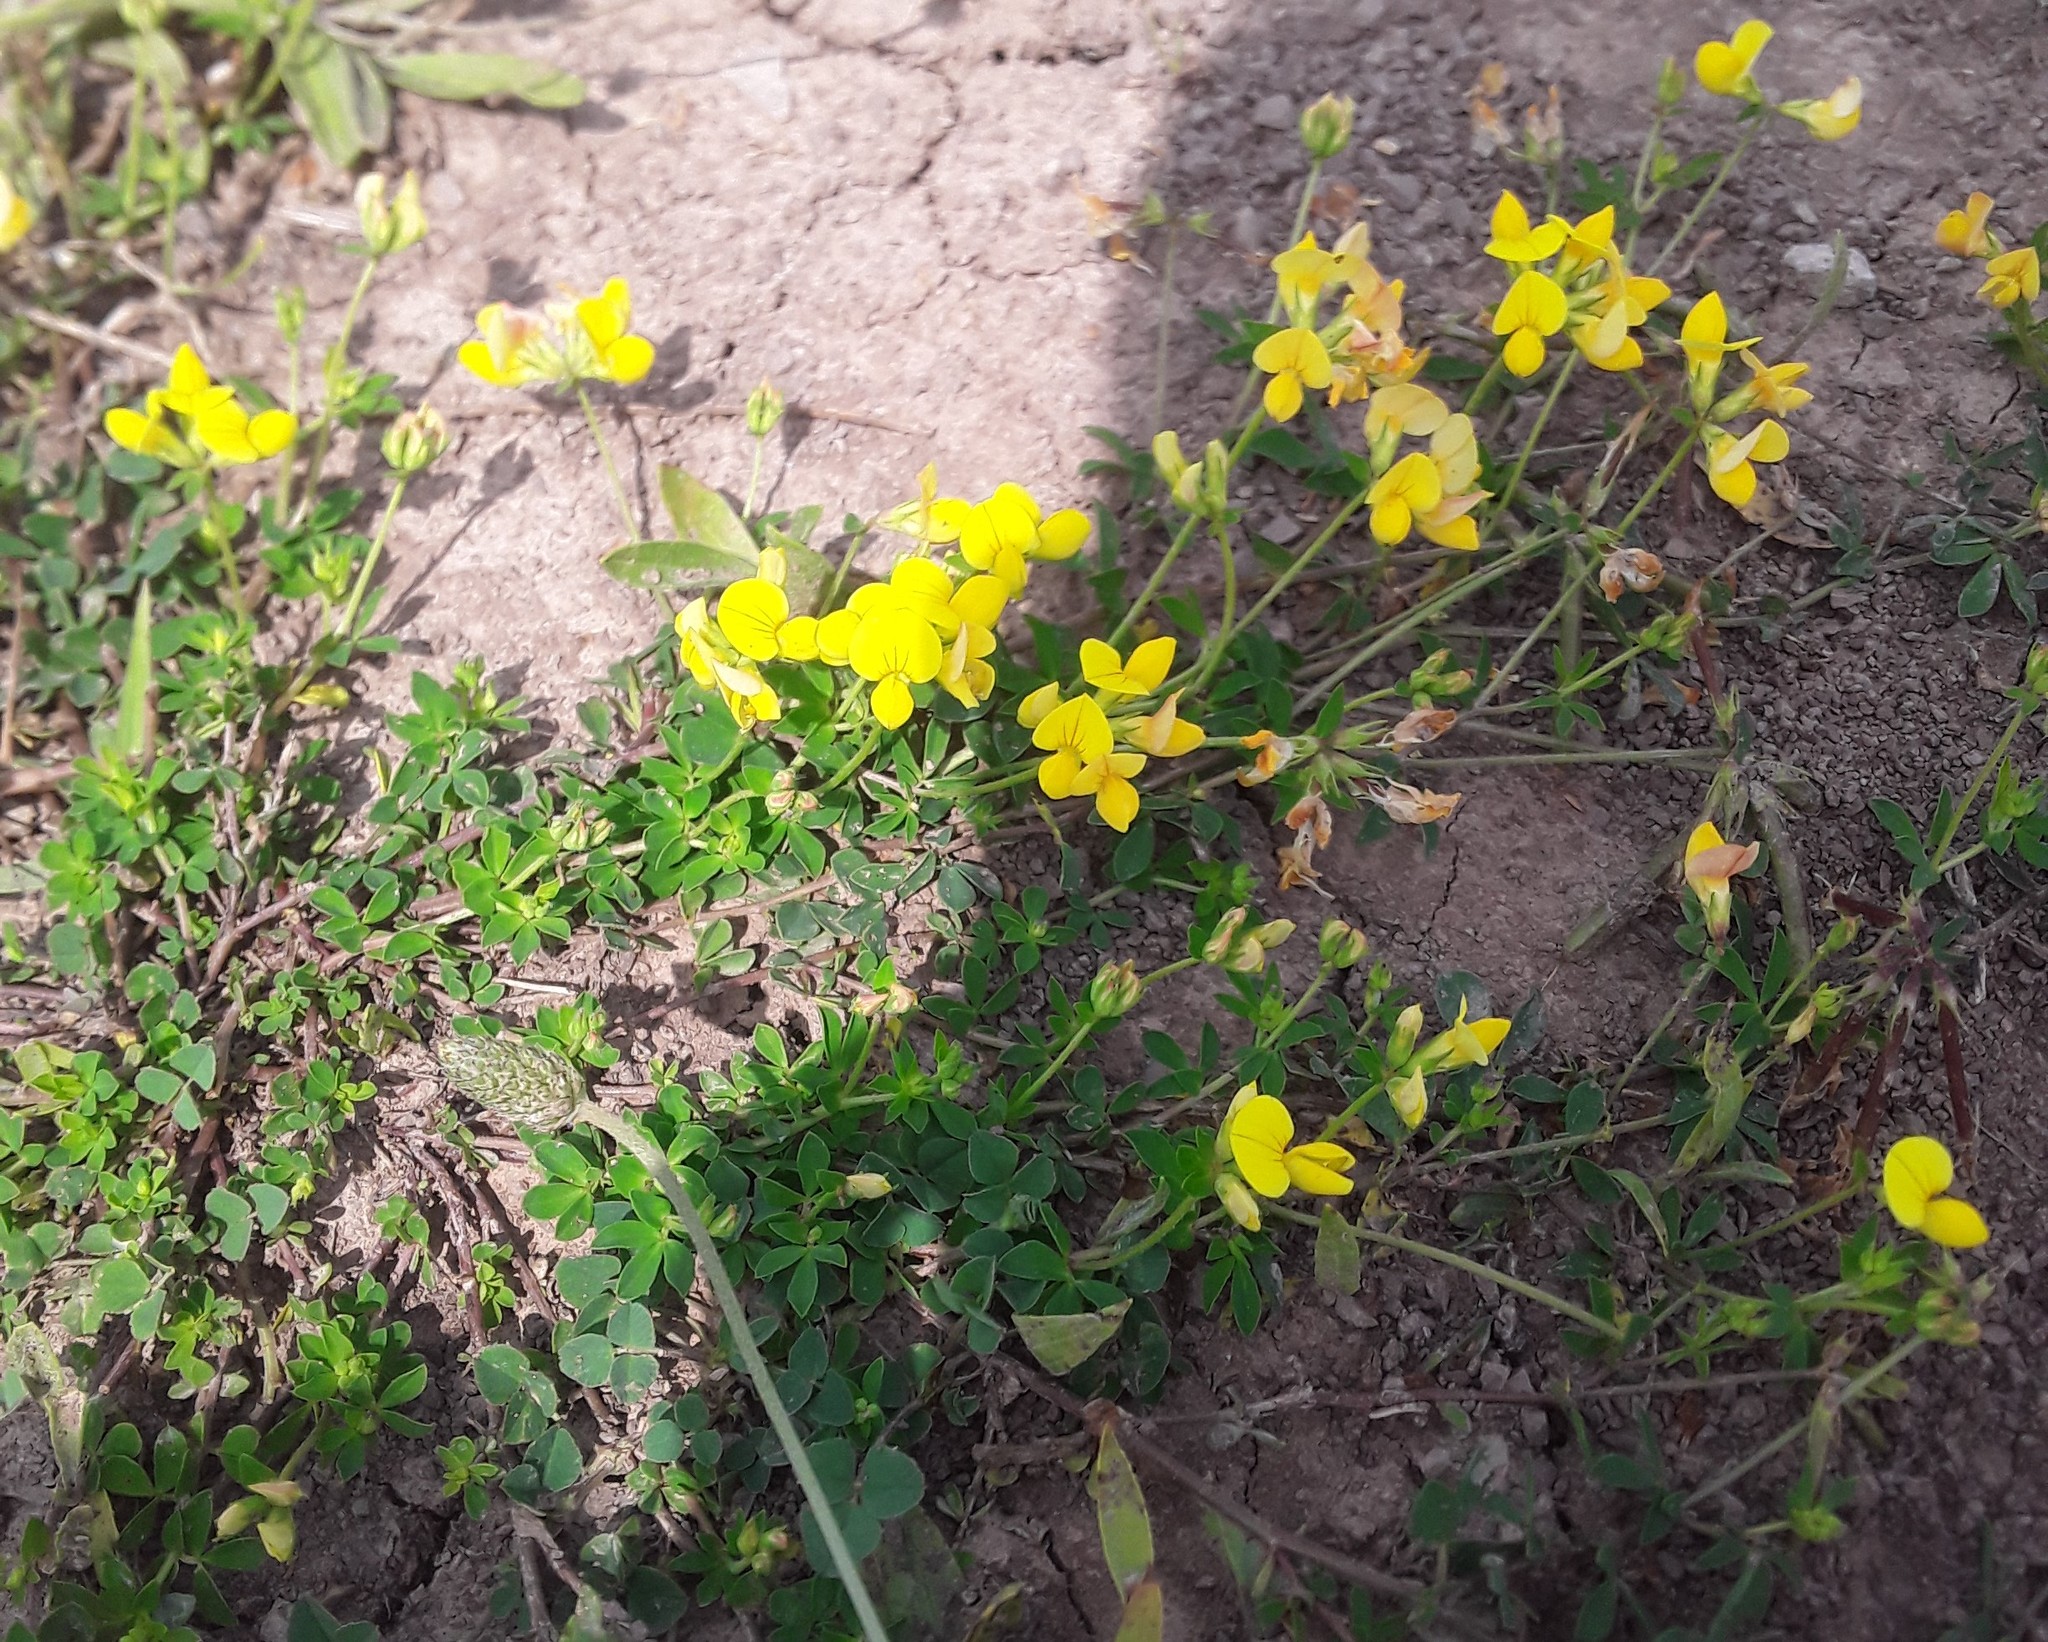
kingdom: Plantae
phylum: Tracheophyta
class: Magnoliopsida
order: Fabales
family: Fabaceae
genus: Lotus
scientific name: Lotus corniculatus
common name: Common bird's-foot-trefoil
